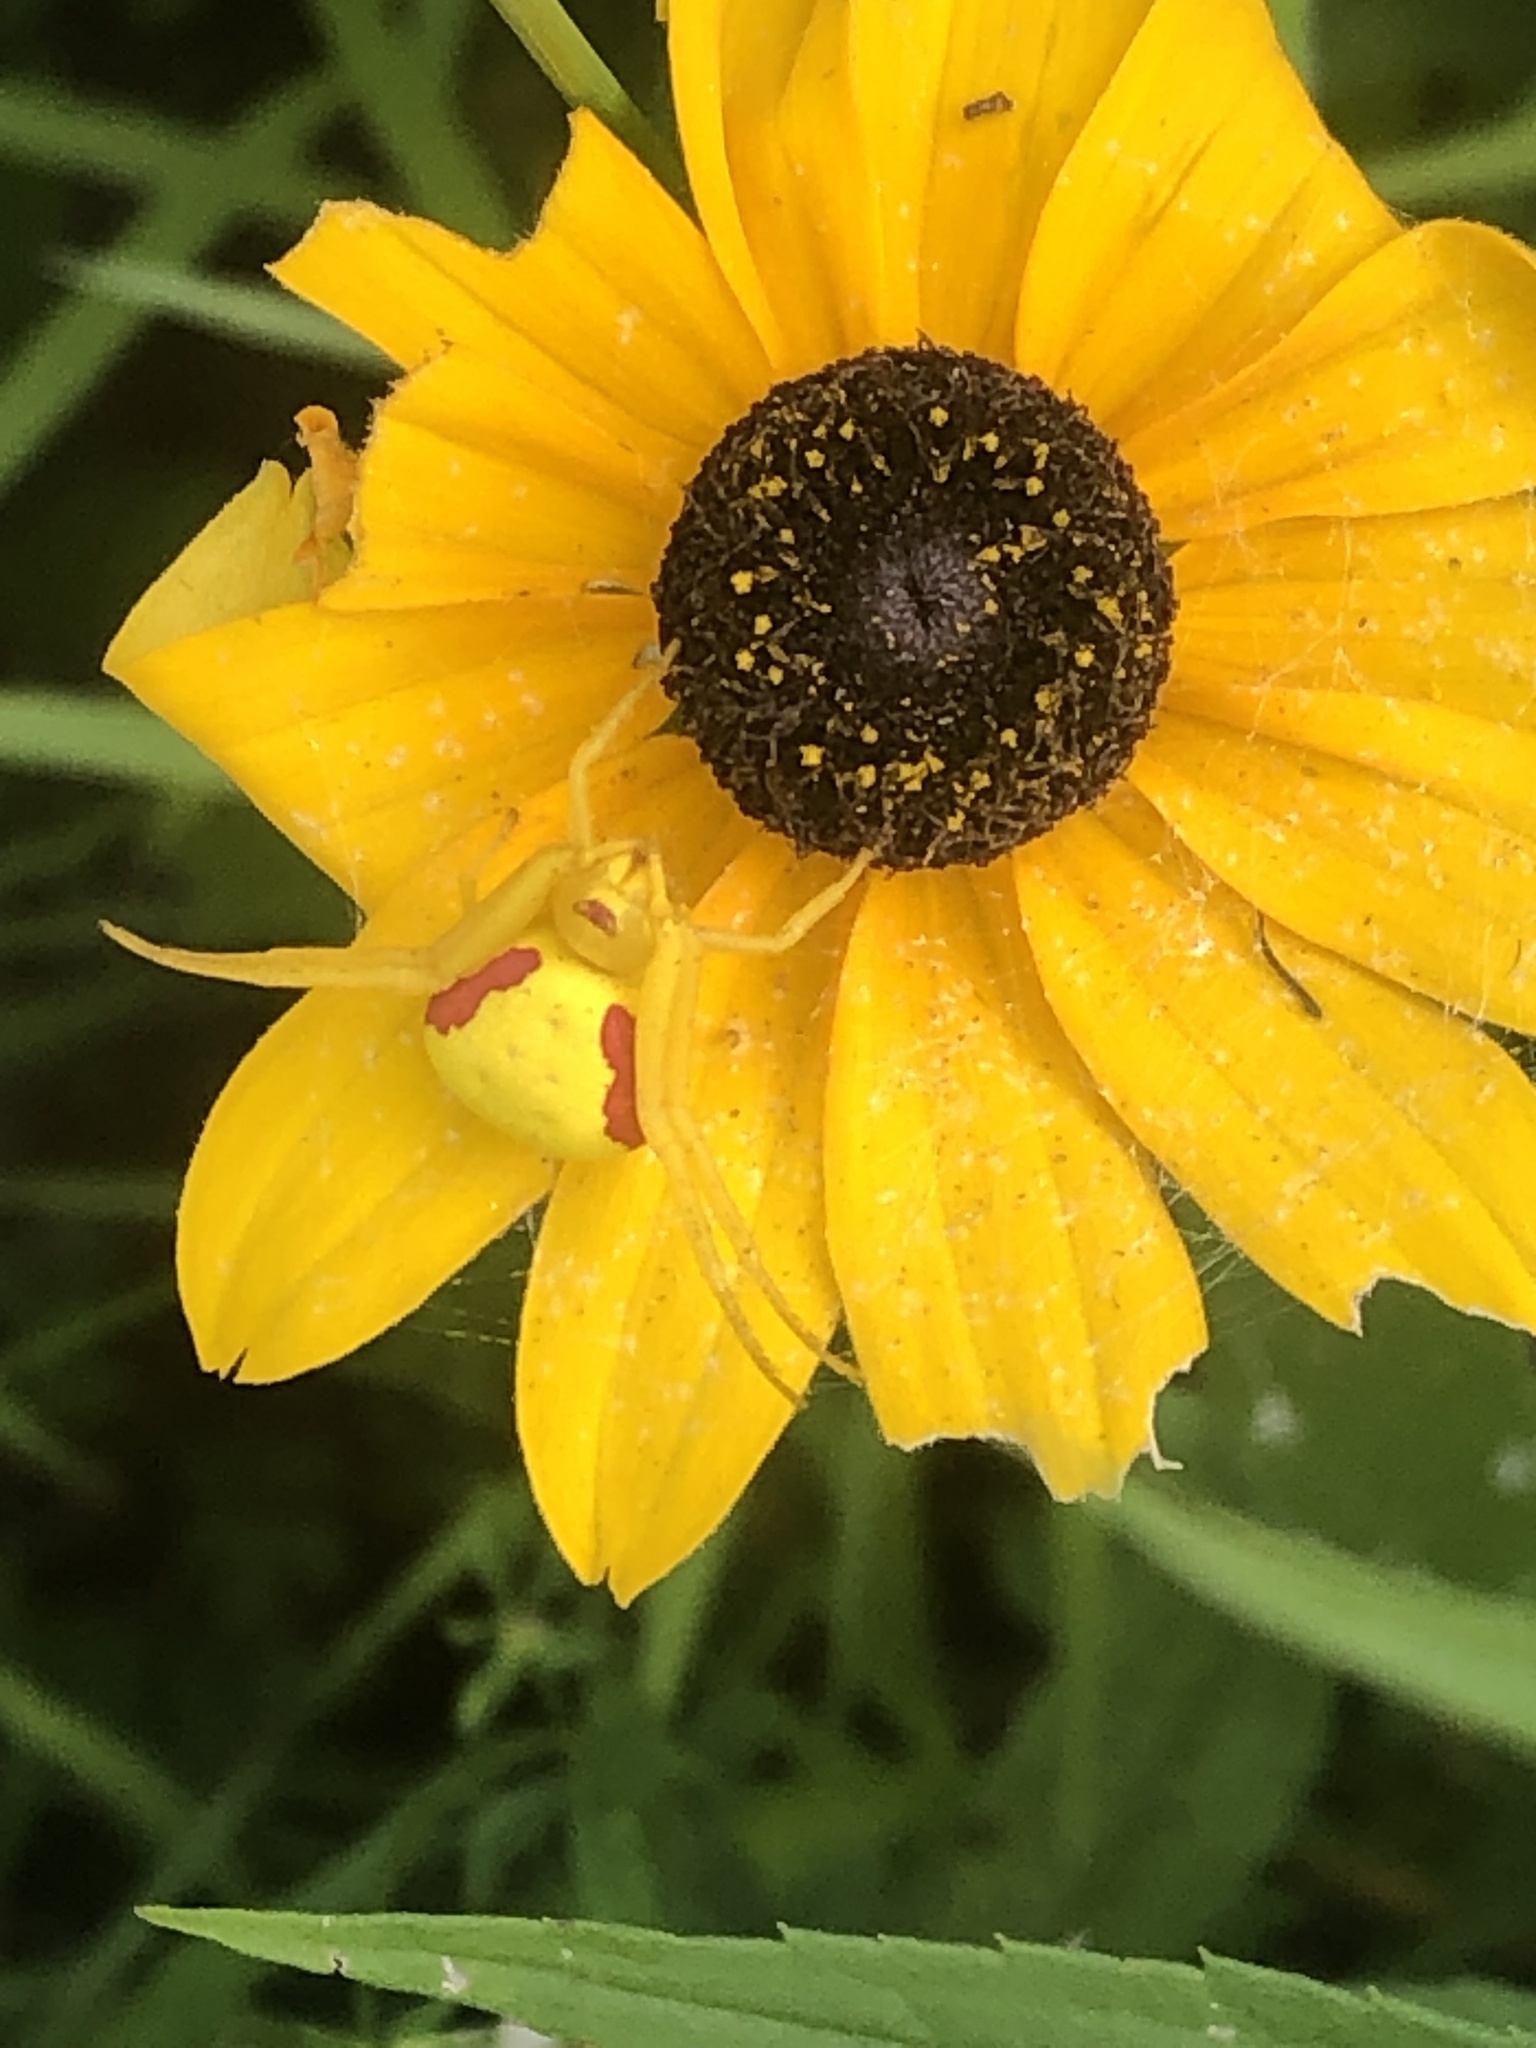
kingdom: Animalia
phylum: Arthropoda
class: Arachnida
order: Araneae
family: Thomisidae
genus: Misumena
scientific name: Misumena vatia
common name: Goldenrod crab spider
